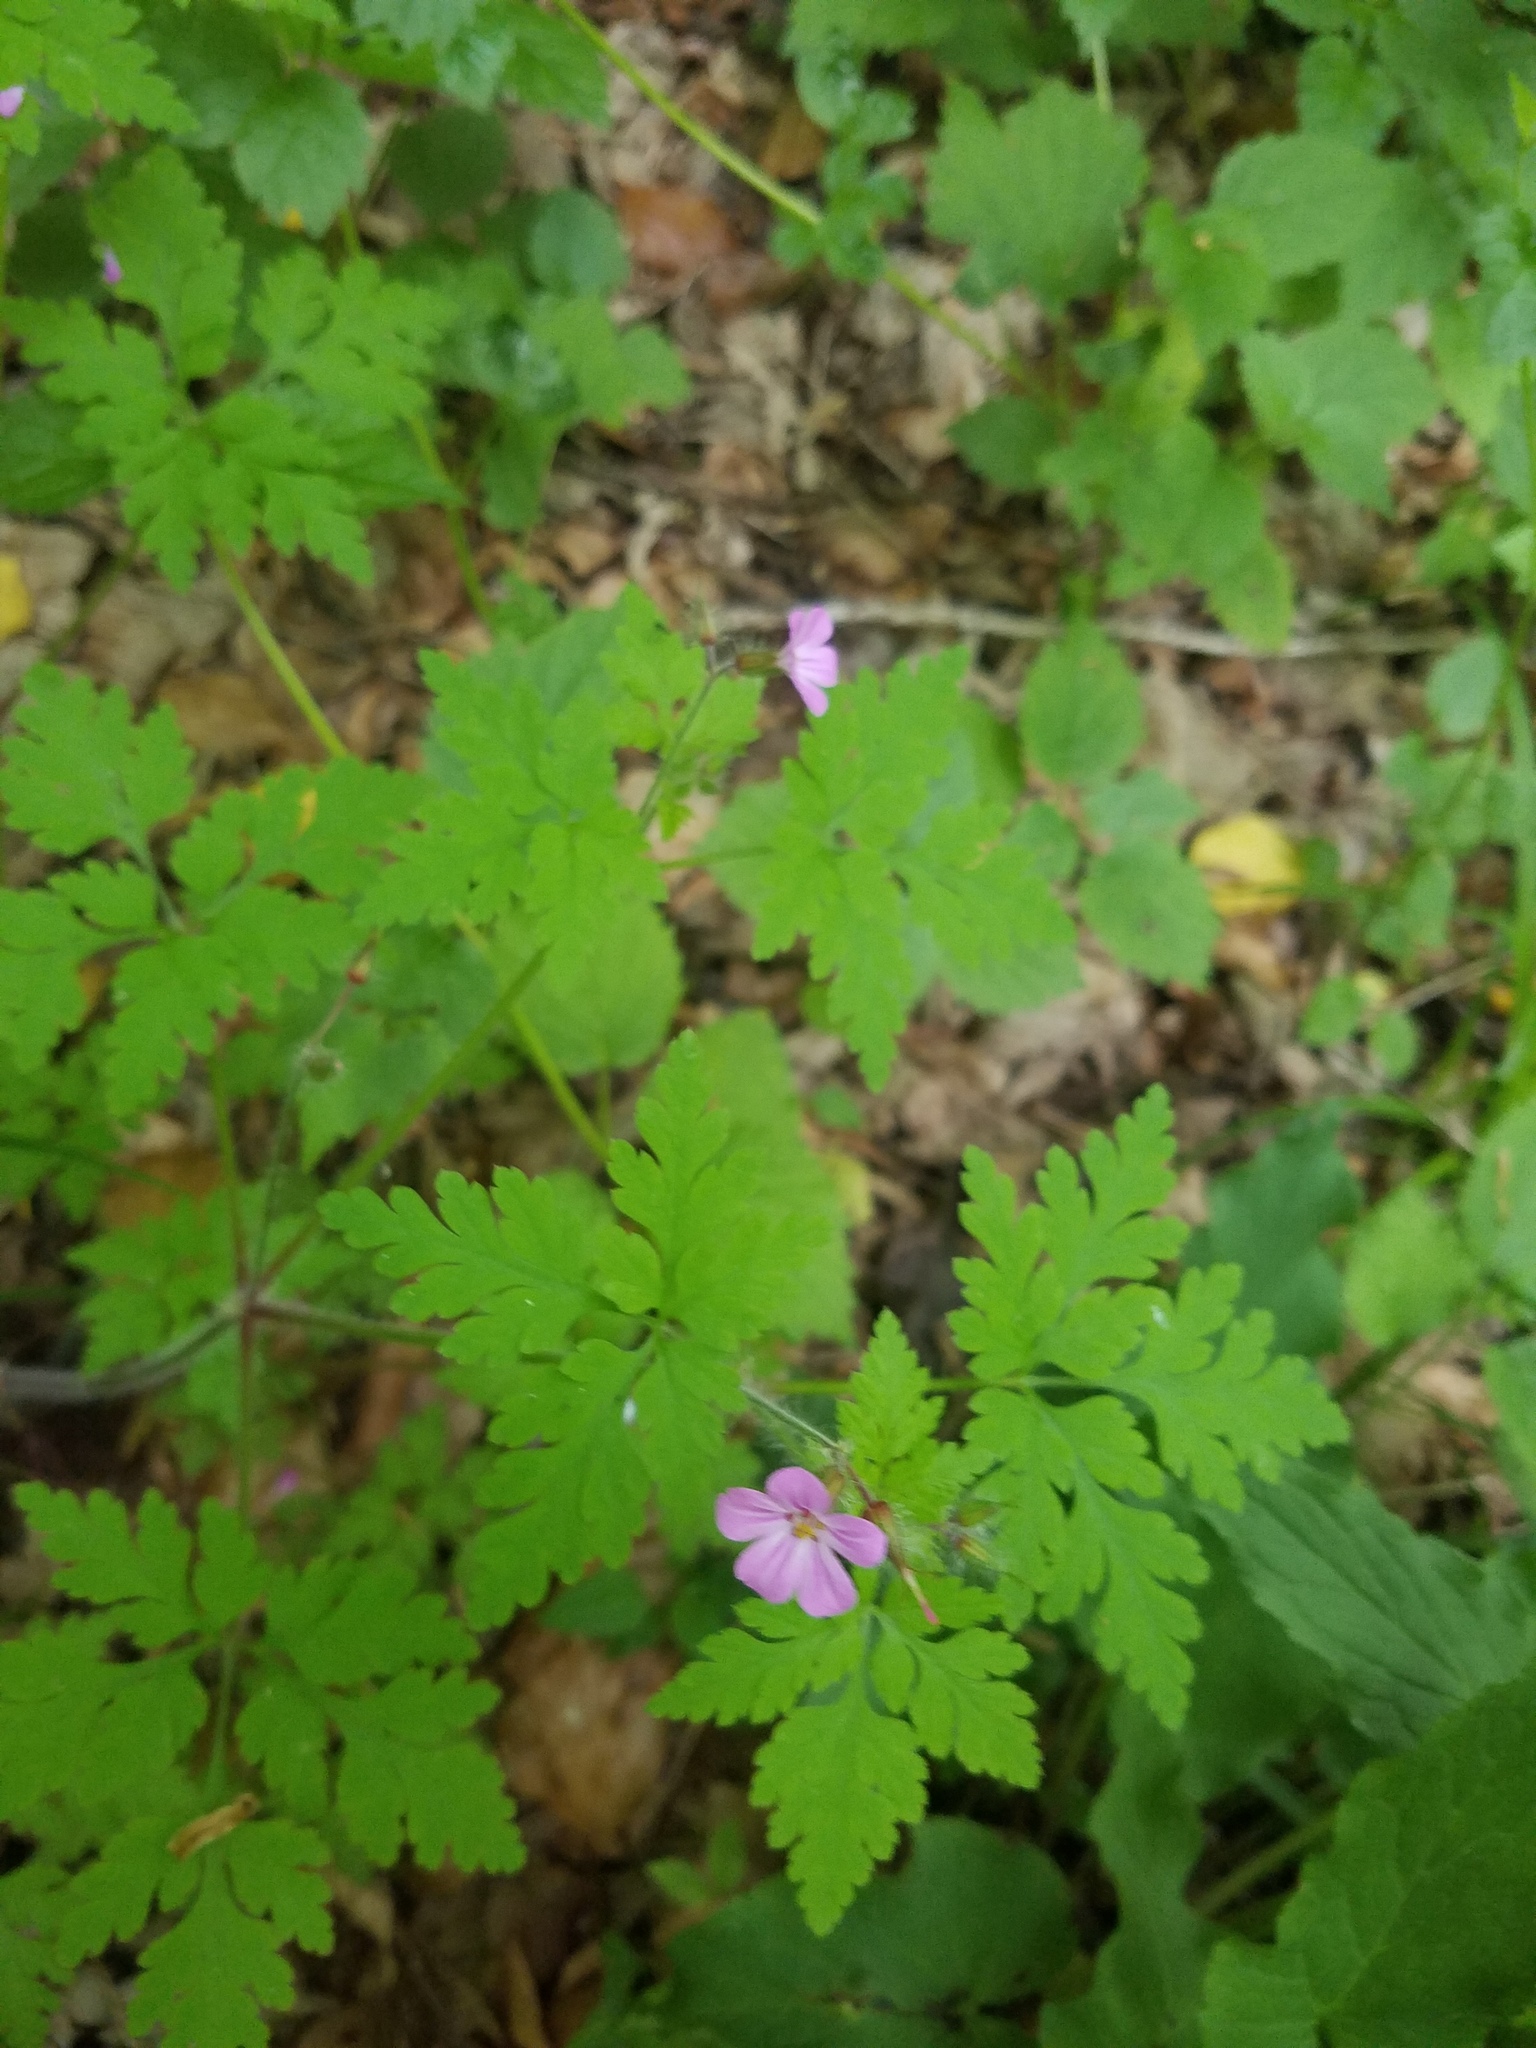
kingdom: Plantae
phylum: Tracheophyta
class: Magnoliopsida
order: Geraniales
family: Geraniaceae
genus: Geranium
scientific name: Geranium robertianum
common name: Herb-robert
